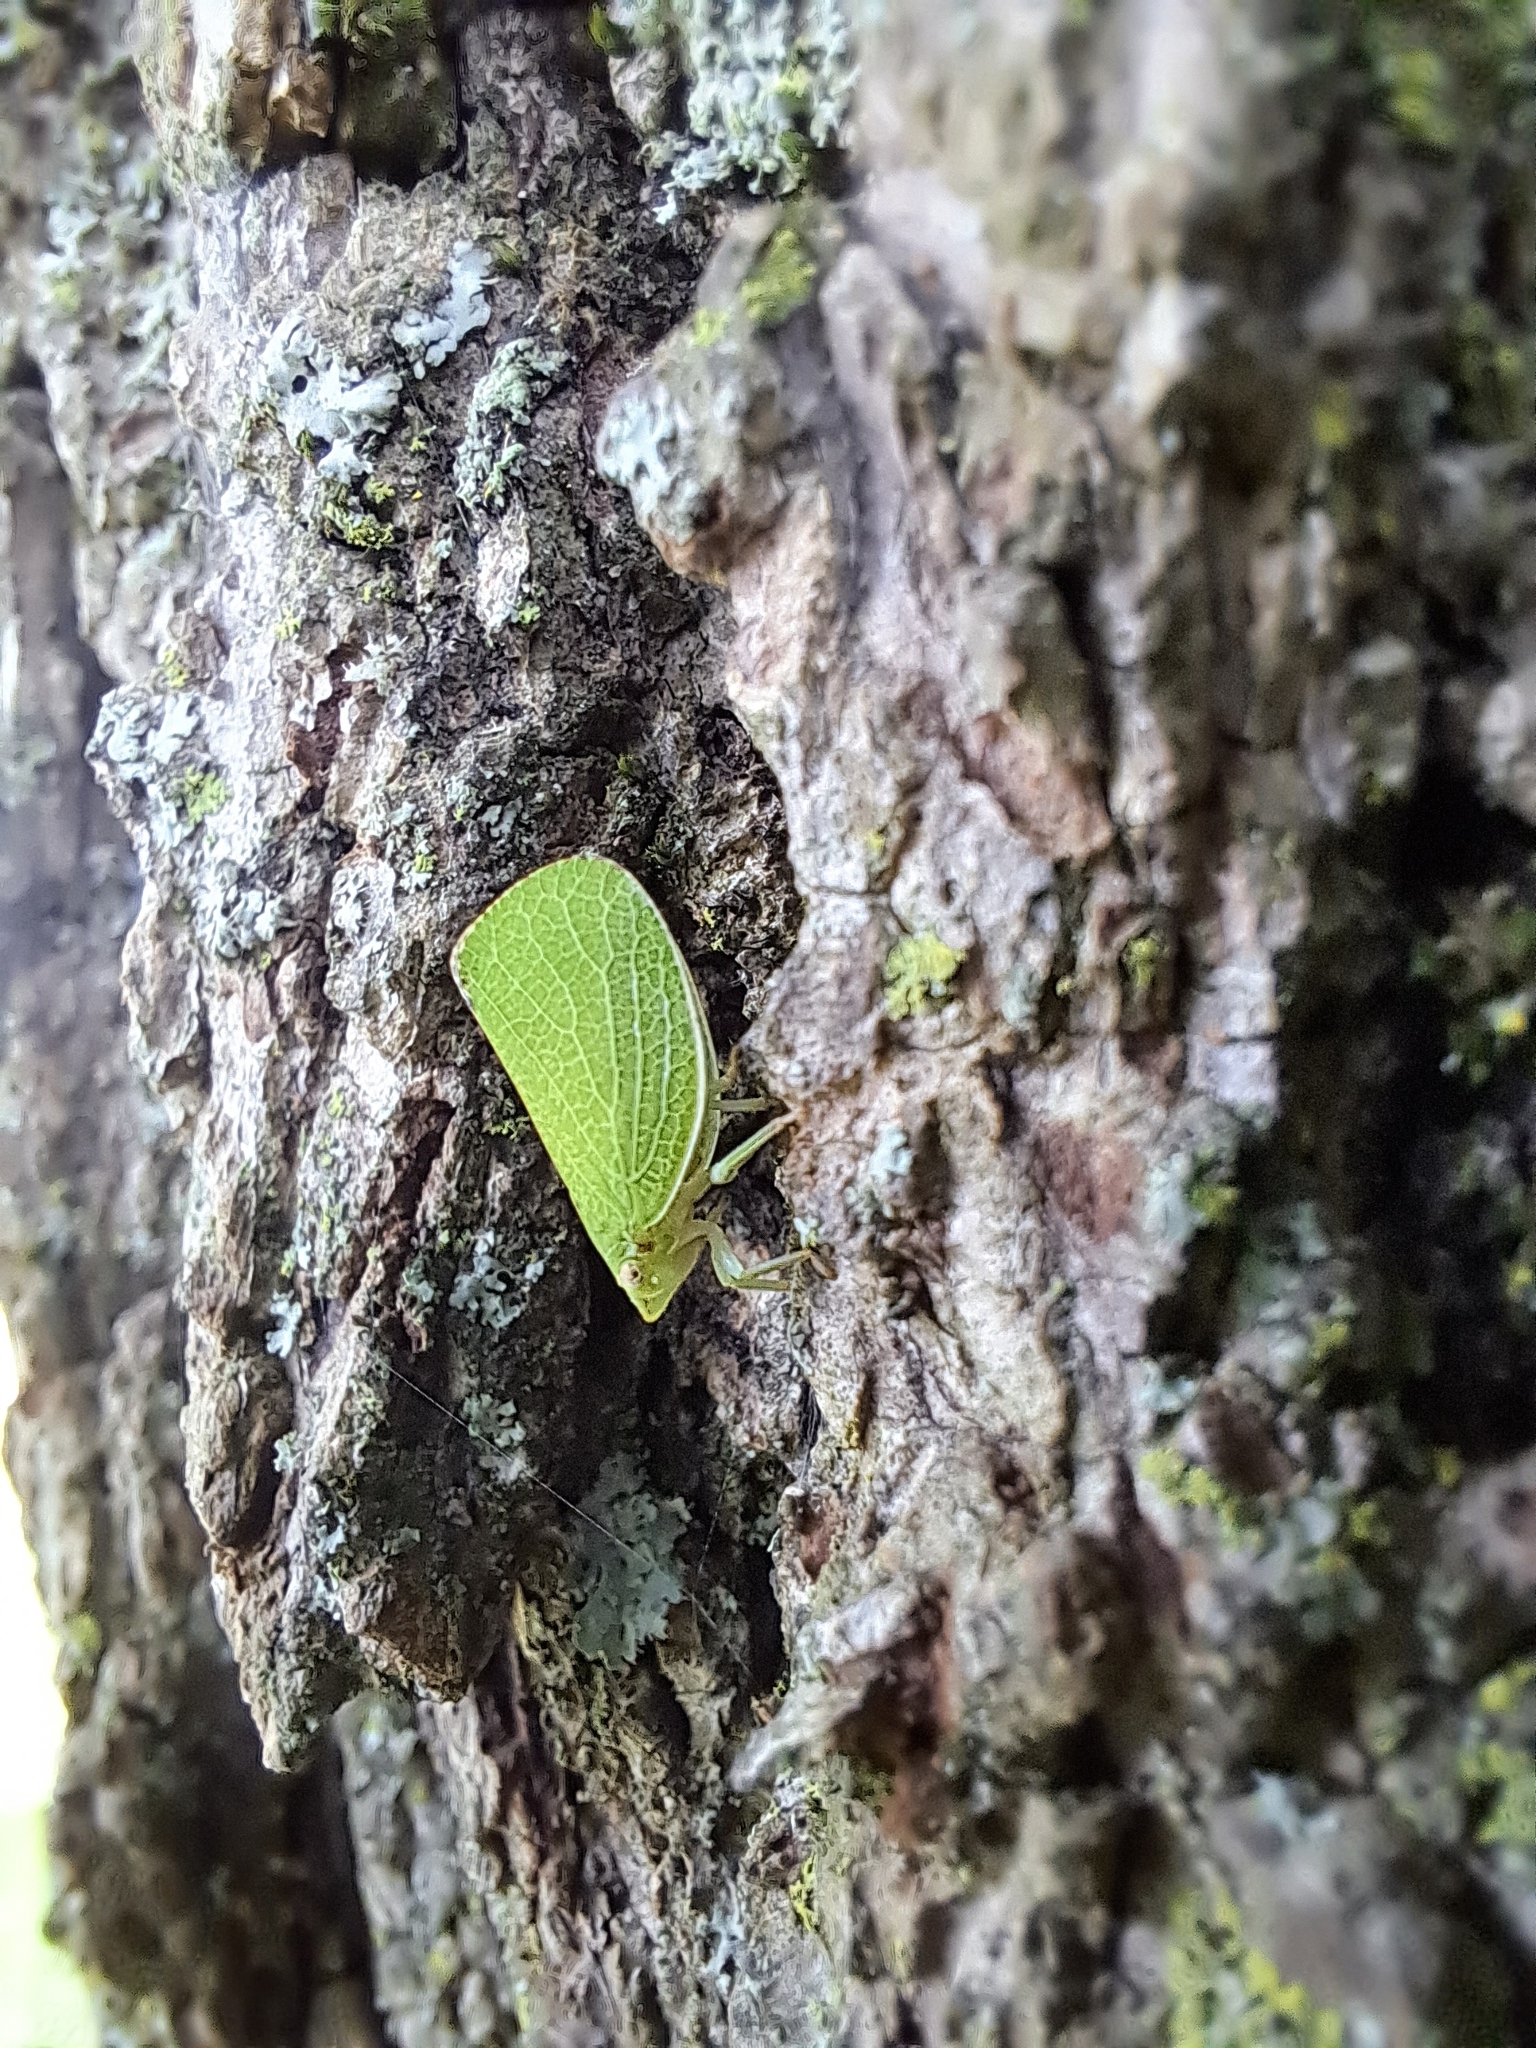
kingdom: Animalia
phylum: Arthropoda
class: Insecta
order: Hemiptera
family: Acanaloniidae
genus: Acanalonia
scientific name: Acanalonia conica
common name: Green cone-headed planthopper
